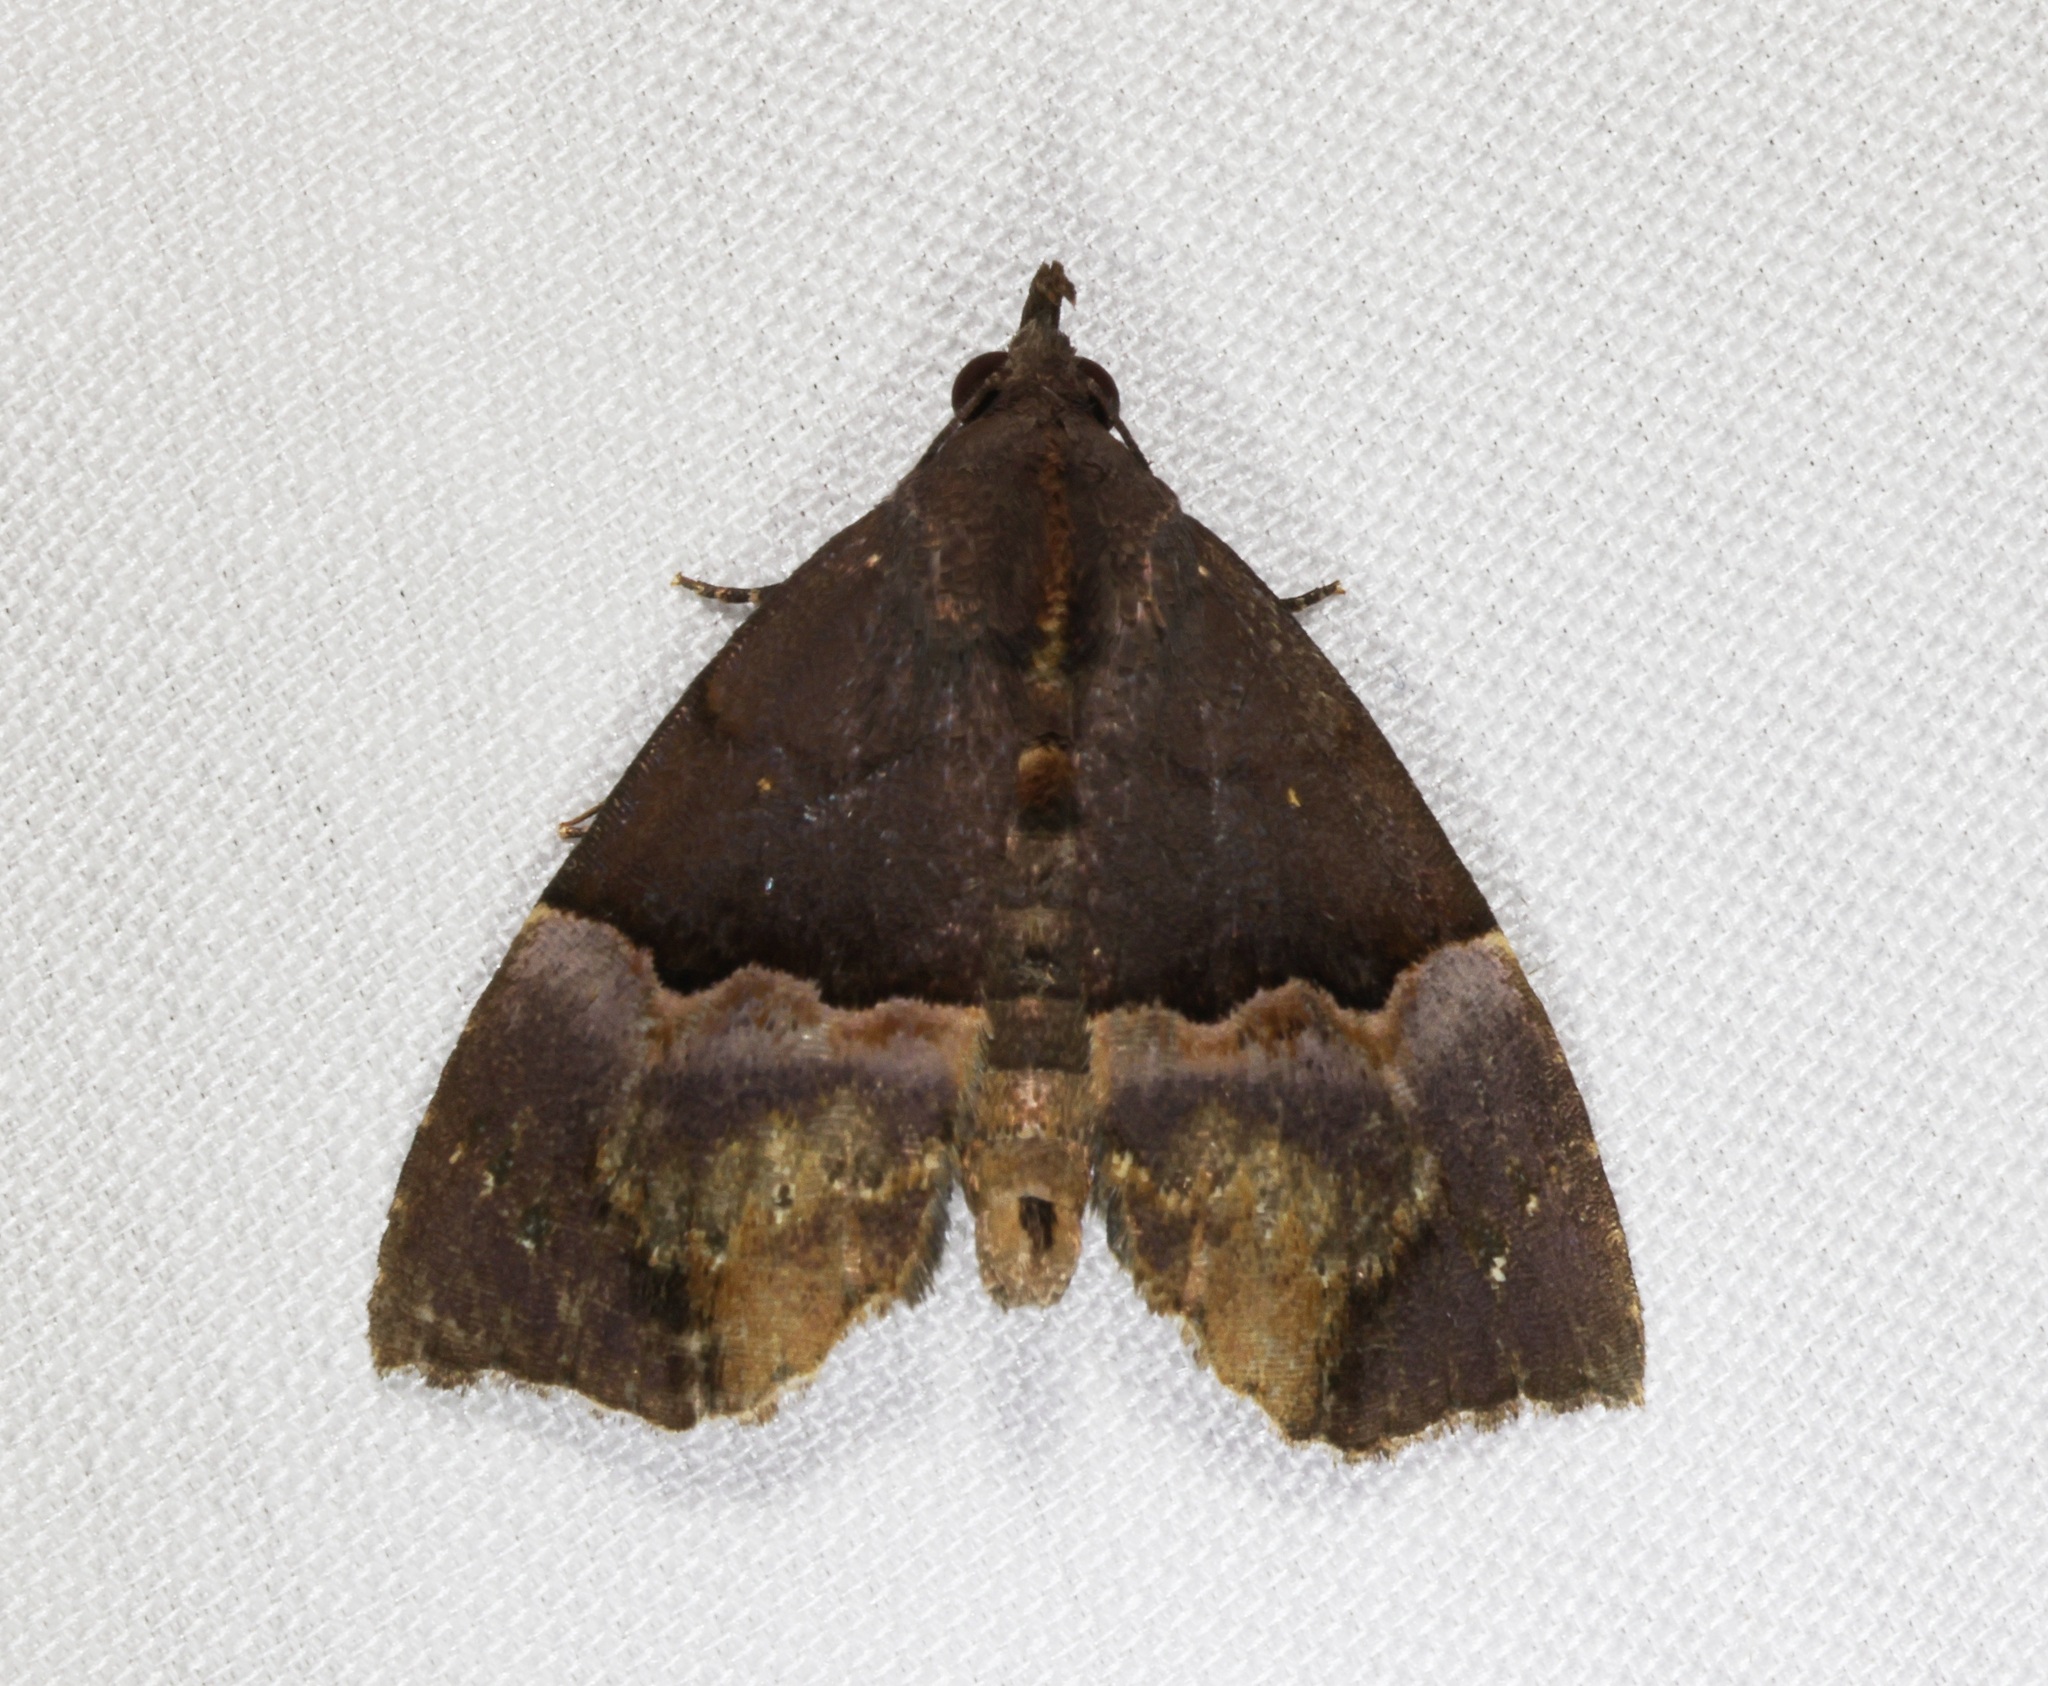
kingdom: Animalia
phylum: Arthropoda
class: Insecta
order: Lepidoptera
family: Noctuidae
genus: Ruttenstorferia
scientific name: Ruttenstorferia
